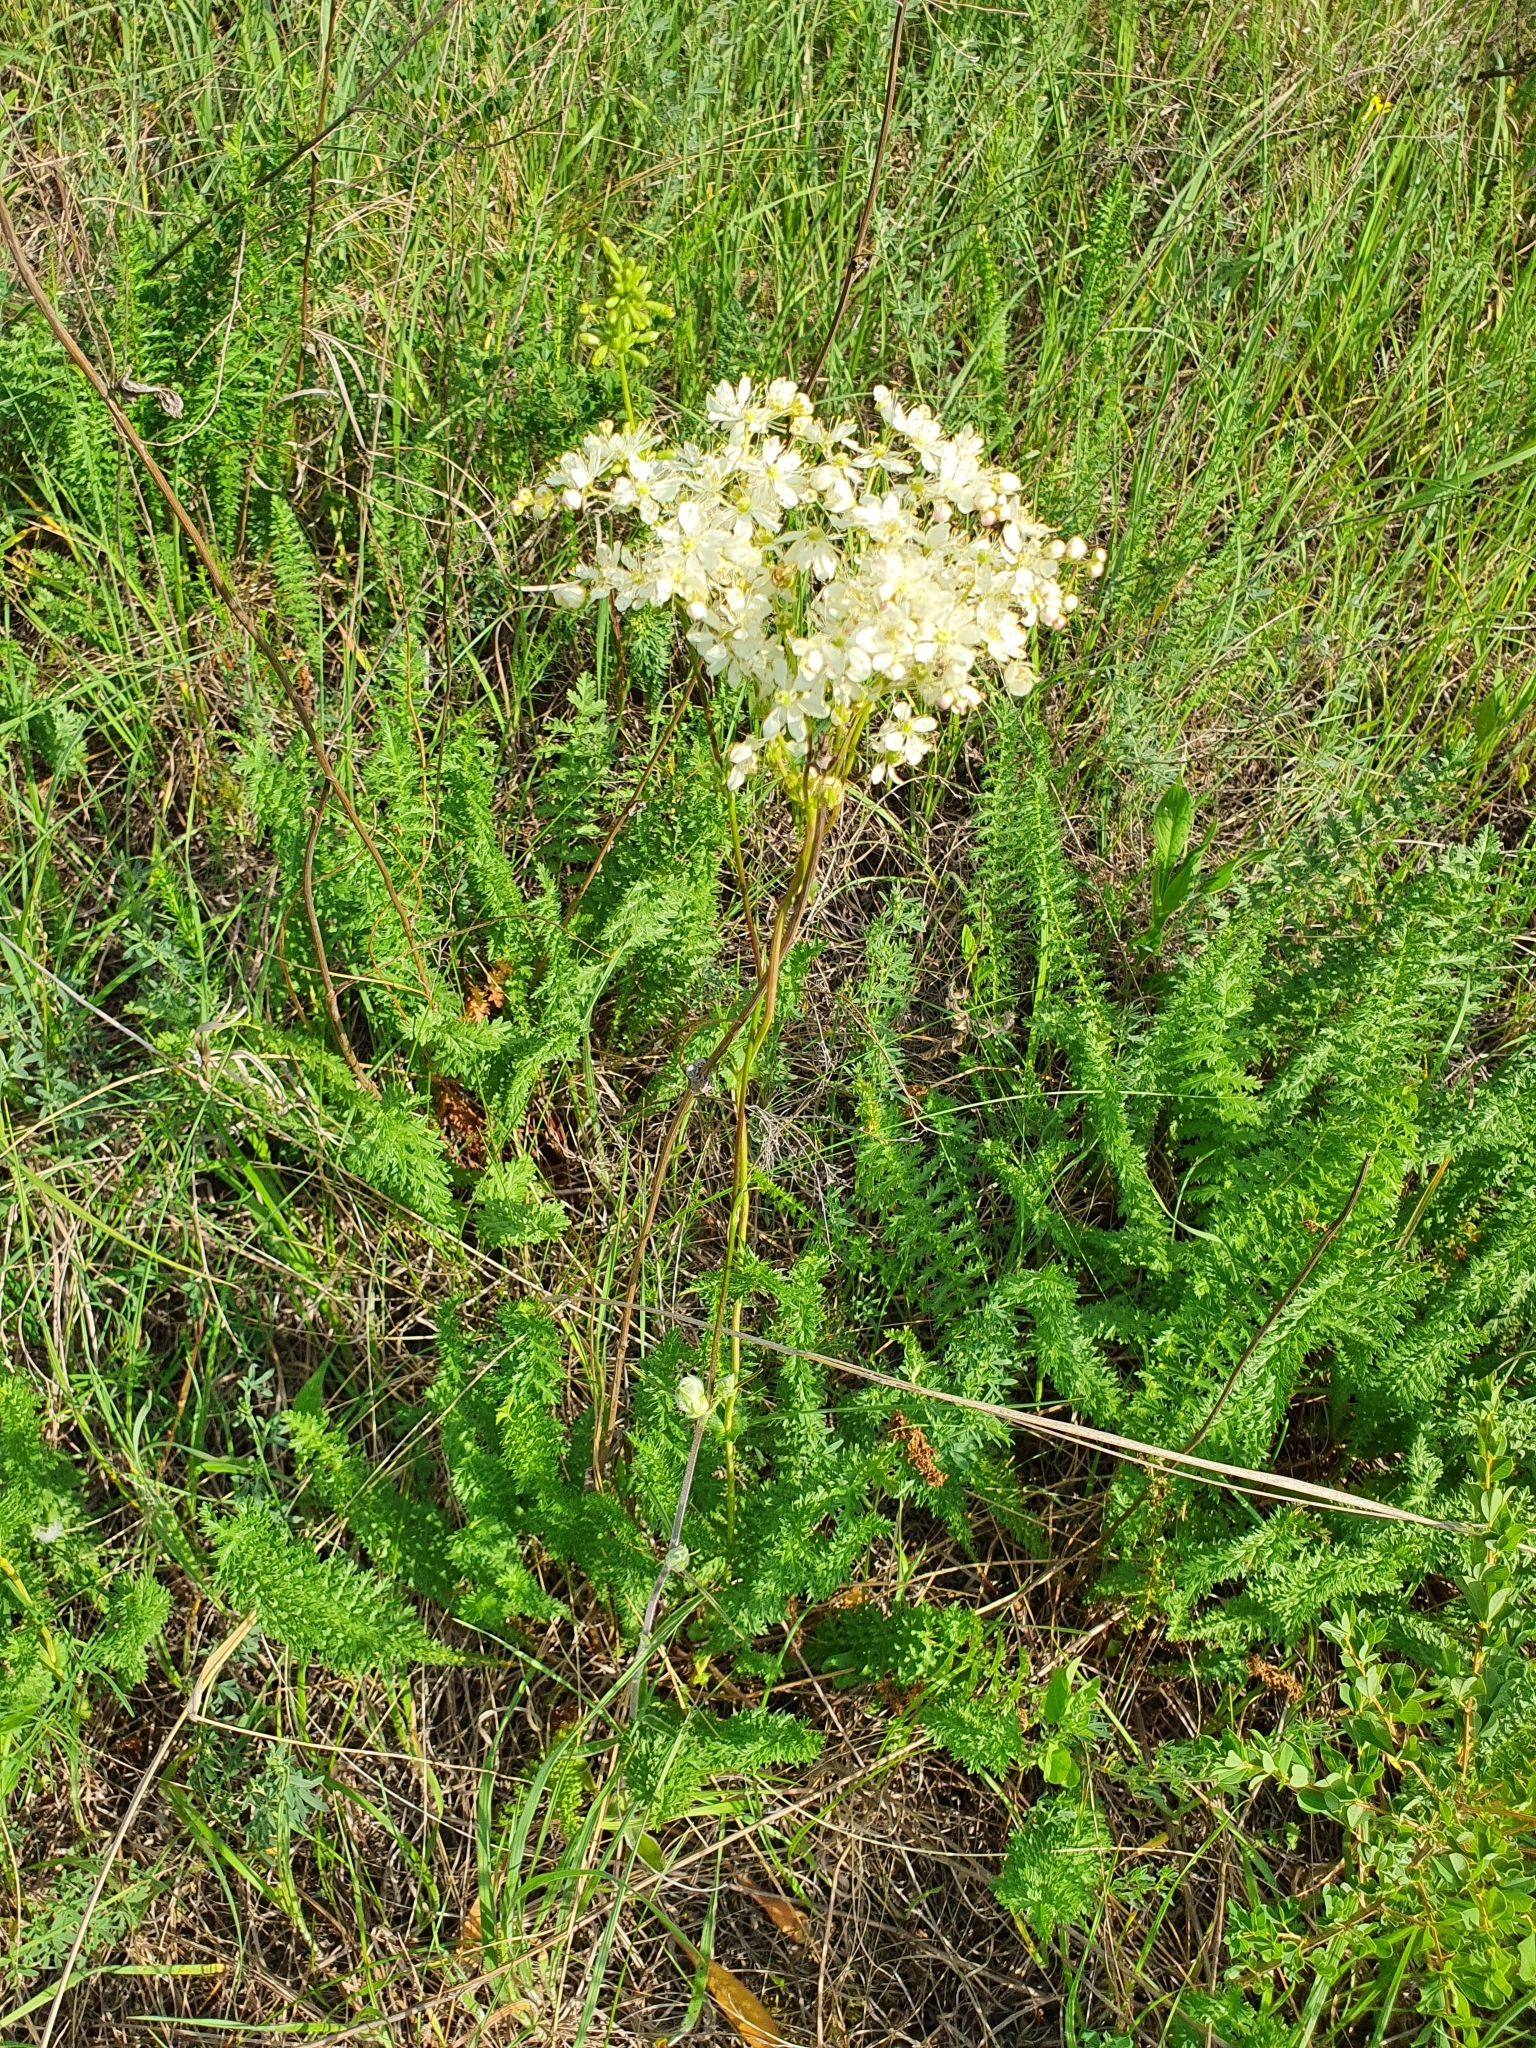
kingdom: Plantae
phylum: Tracheophyta
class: Magnoliopsida
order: Rosales
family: Rosaceae
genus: Filipendula
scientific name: Filipendula vulgaris
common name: Dropwort
